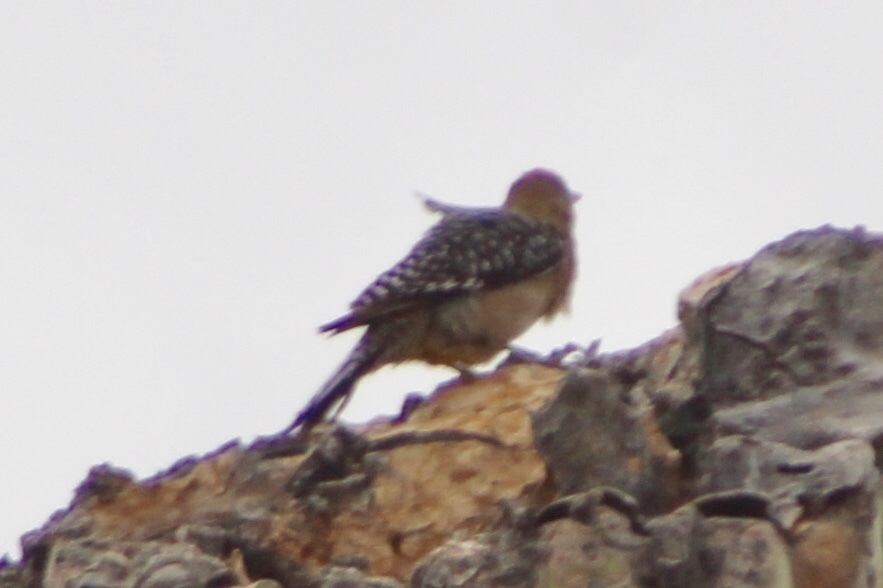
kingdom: Animalia
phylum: Chordata
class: Aves
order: Piciformes
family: Picidae
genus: Melanerpes
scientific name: Melanerpes uropygialis
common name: Gila woodpecker
